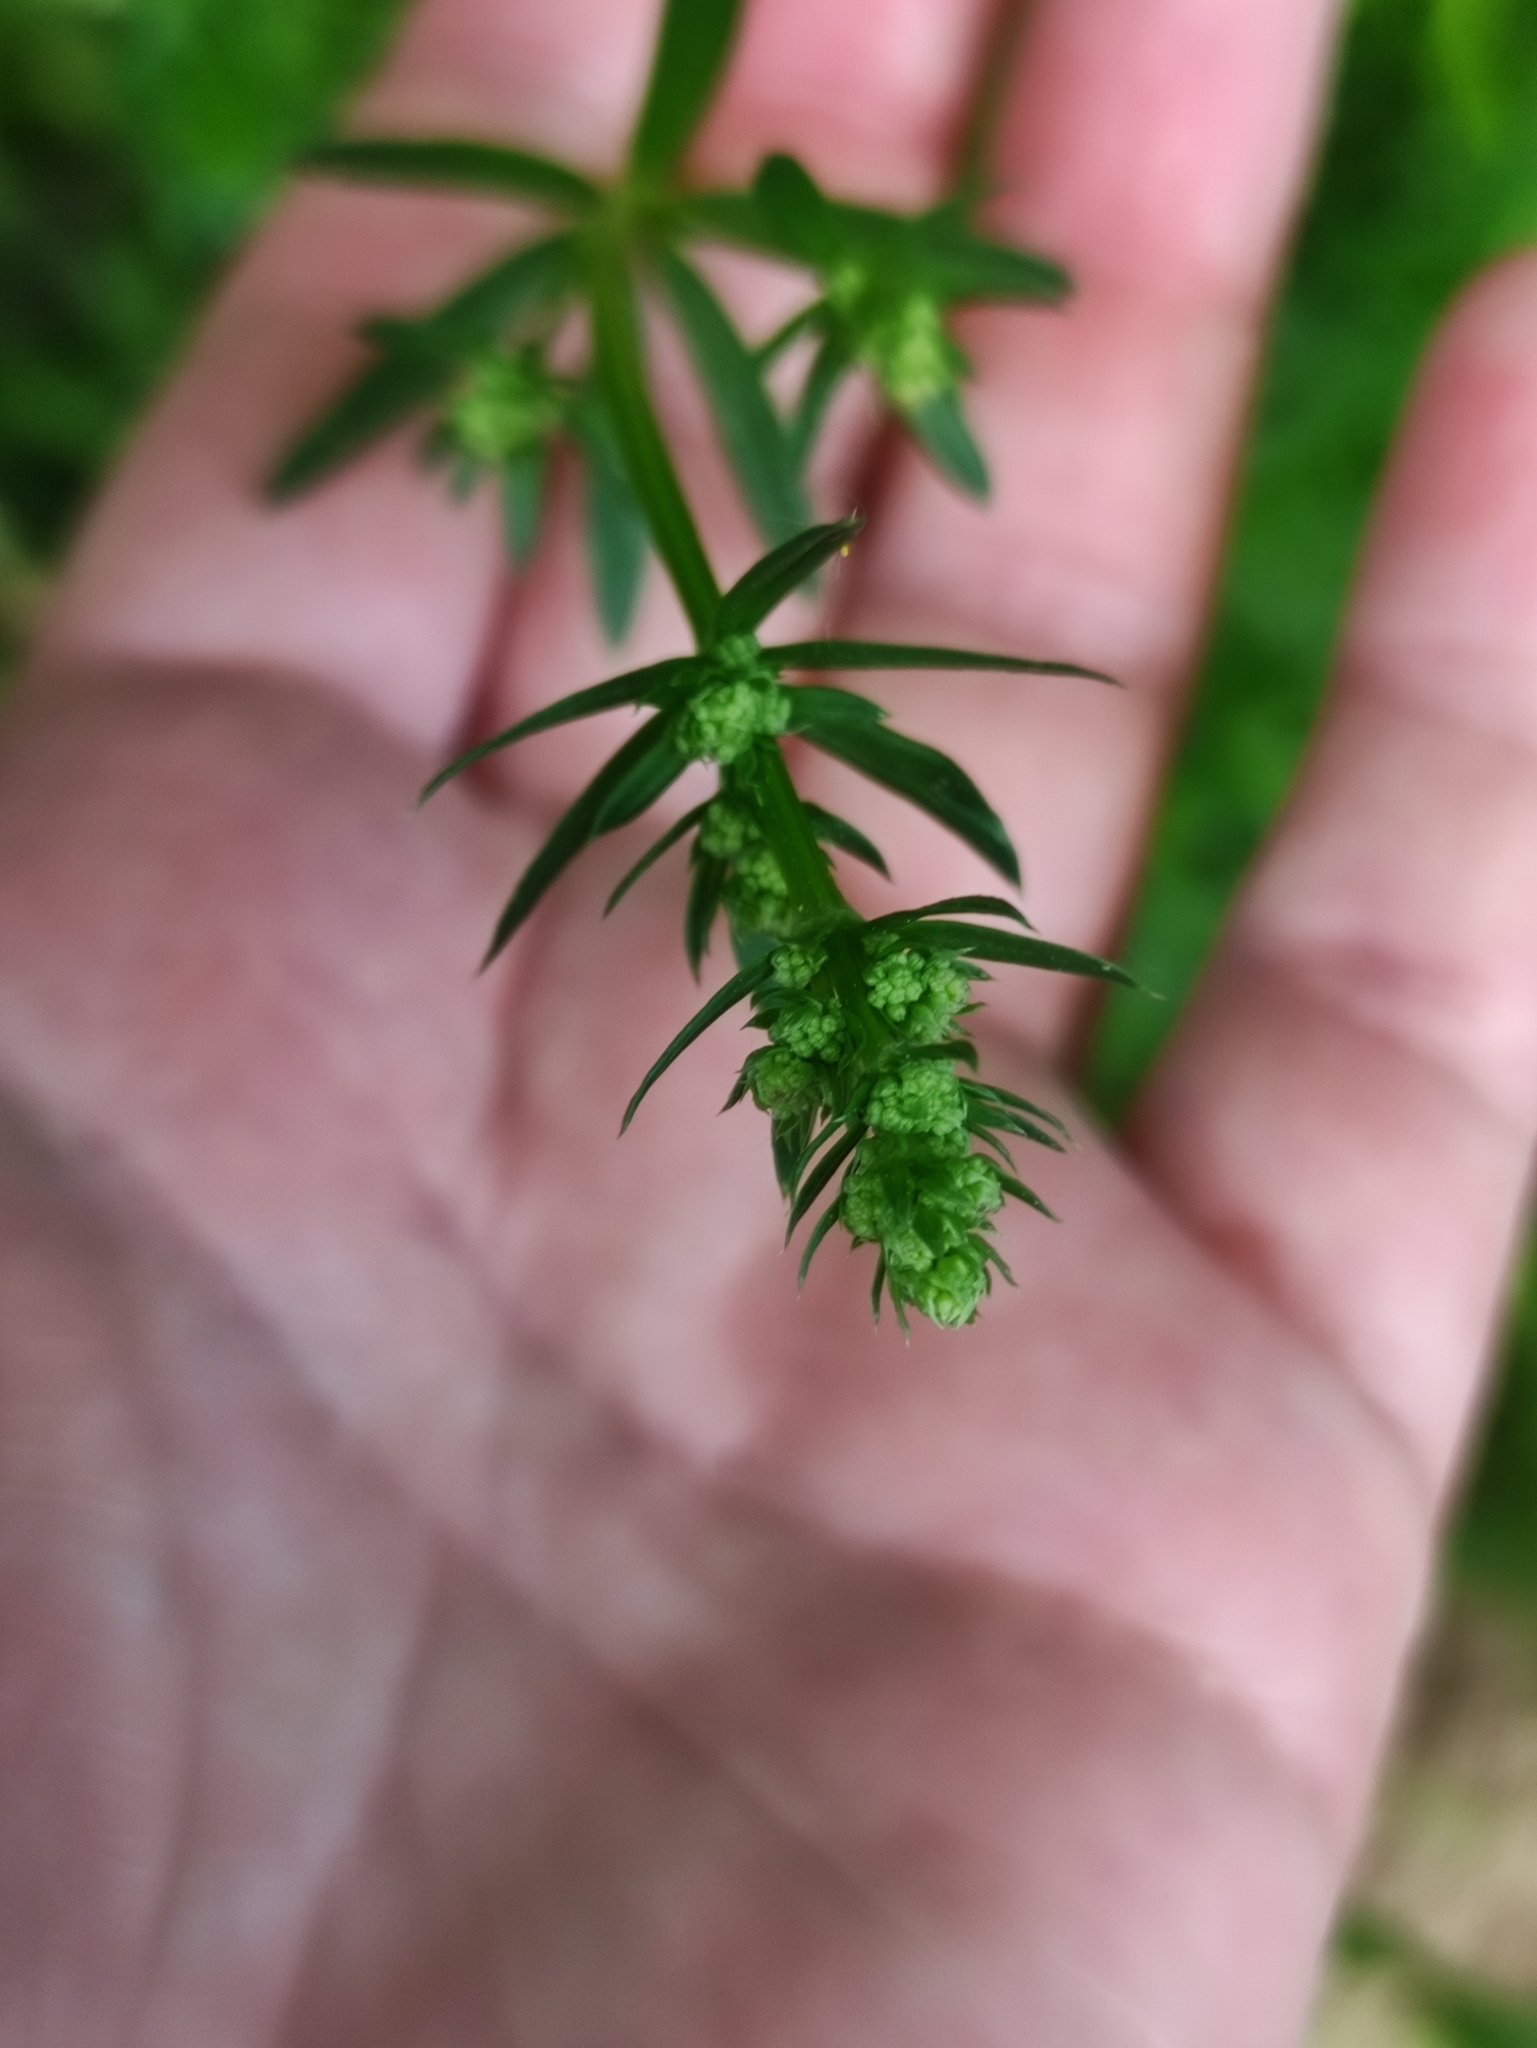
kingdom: Plantae
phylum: Tracheophyta
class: Magnoliopsida
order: Gentianales
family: Rubiaceae
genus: Galium
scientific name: Galium mollugo
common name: Hedge bedstraw
